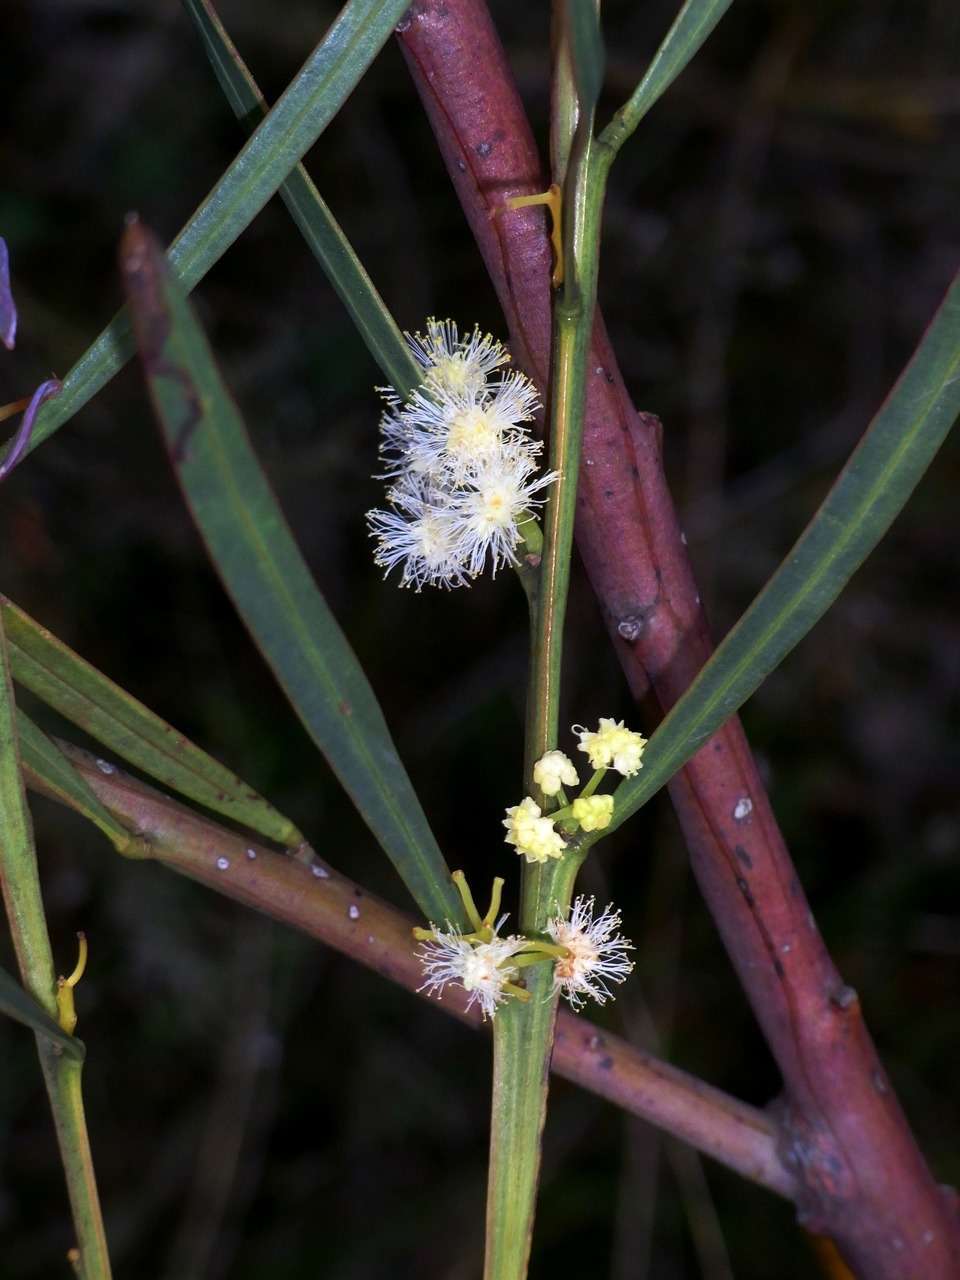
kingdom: Plantae
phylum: Tracheophyta
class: Magnoliopsida
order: Fabales
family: Fabaceae
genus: Acacia
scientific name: Acacia suaveolens
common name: Sweet acacia
